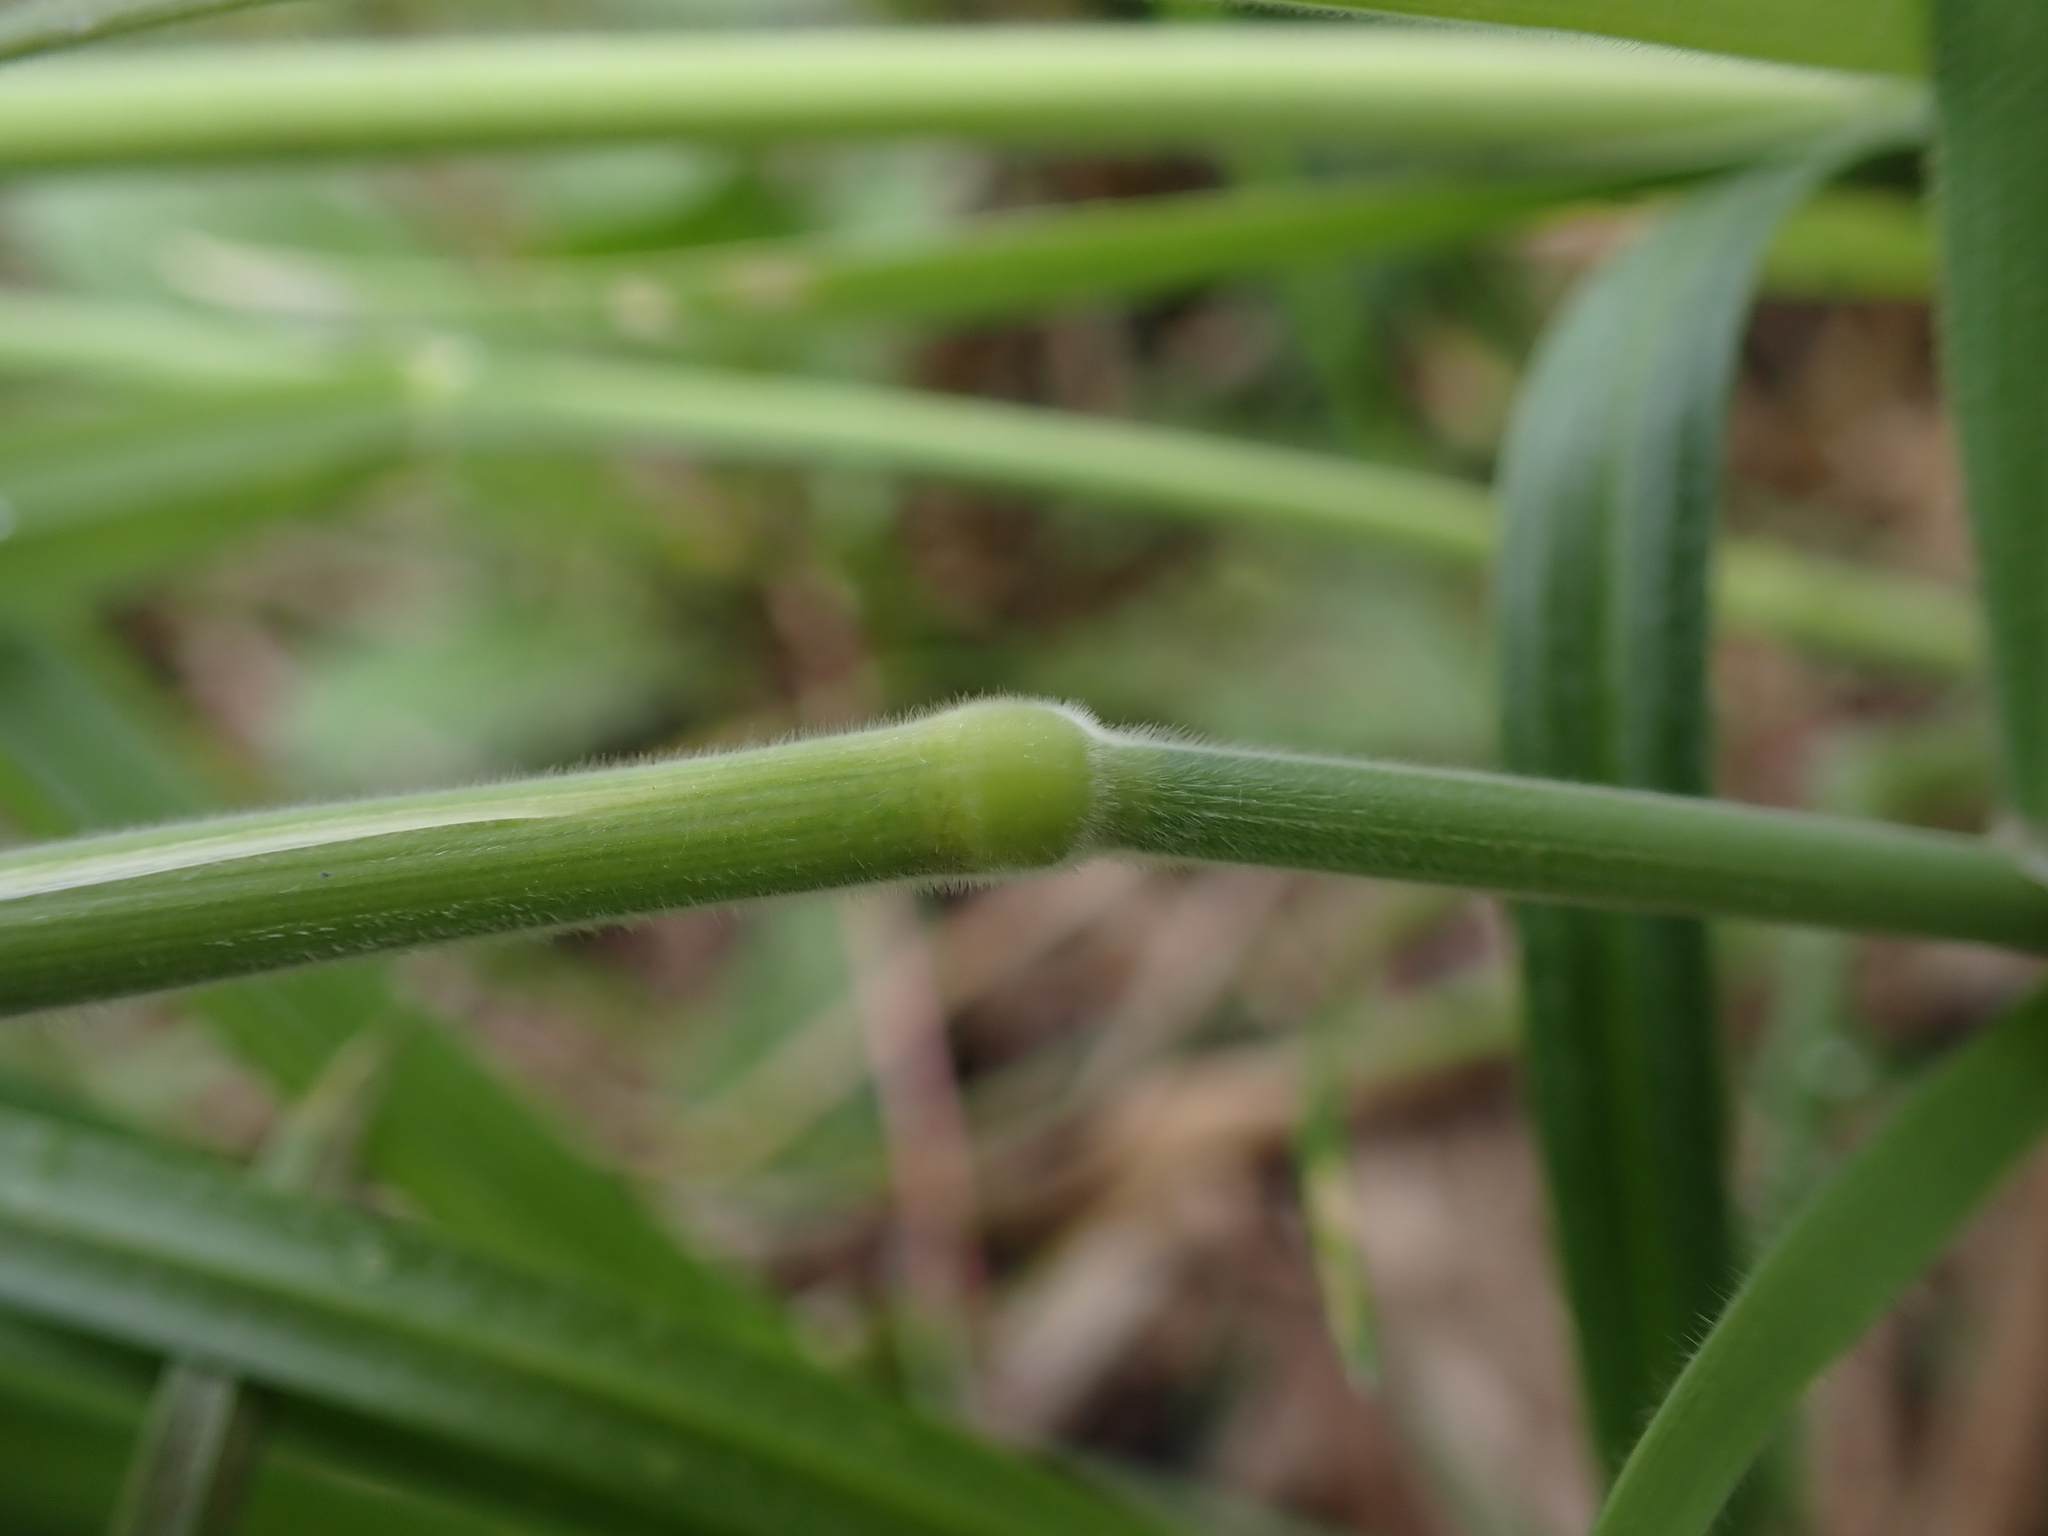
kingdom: Plantae
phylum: Tracheophyta
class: Liliopsida
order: Poales
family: Poaceae
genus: Holcus
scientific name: Holcus lanatus
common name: Yorkshire-fog
